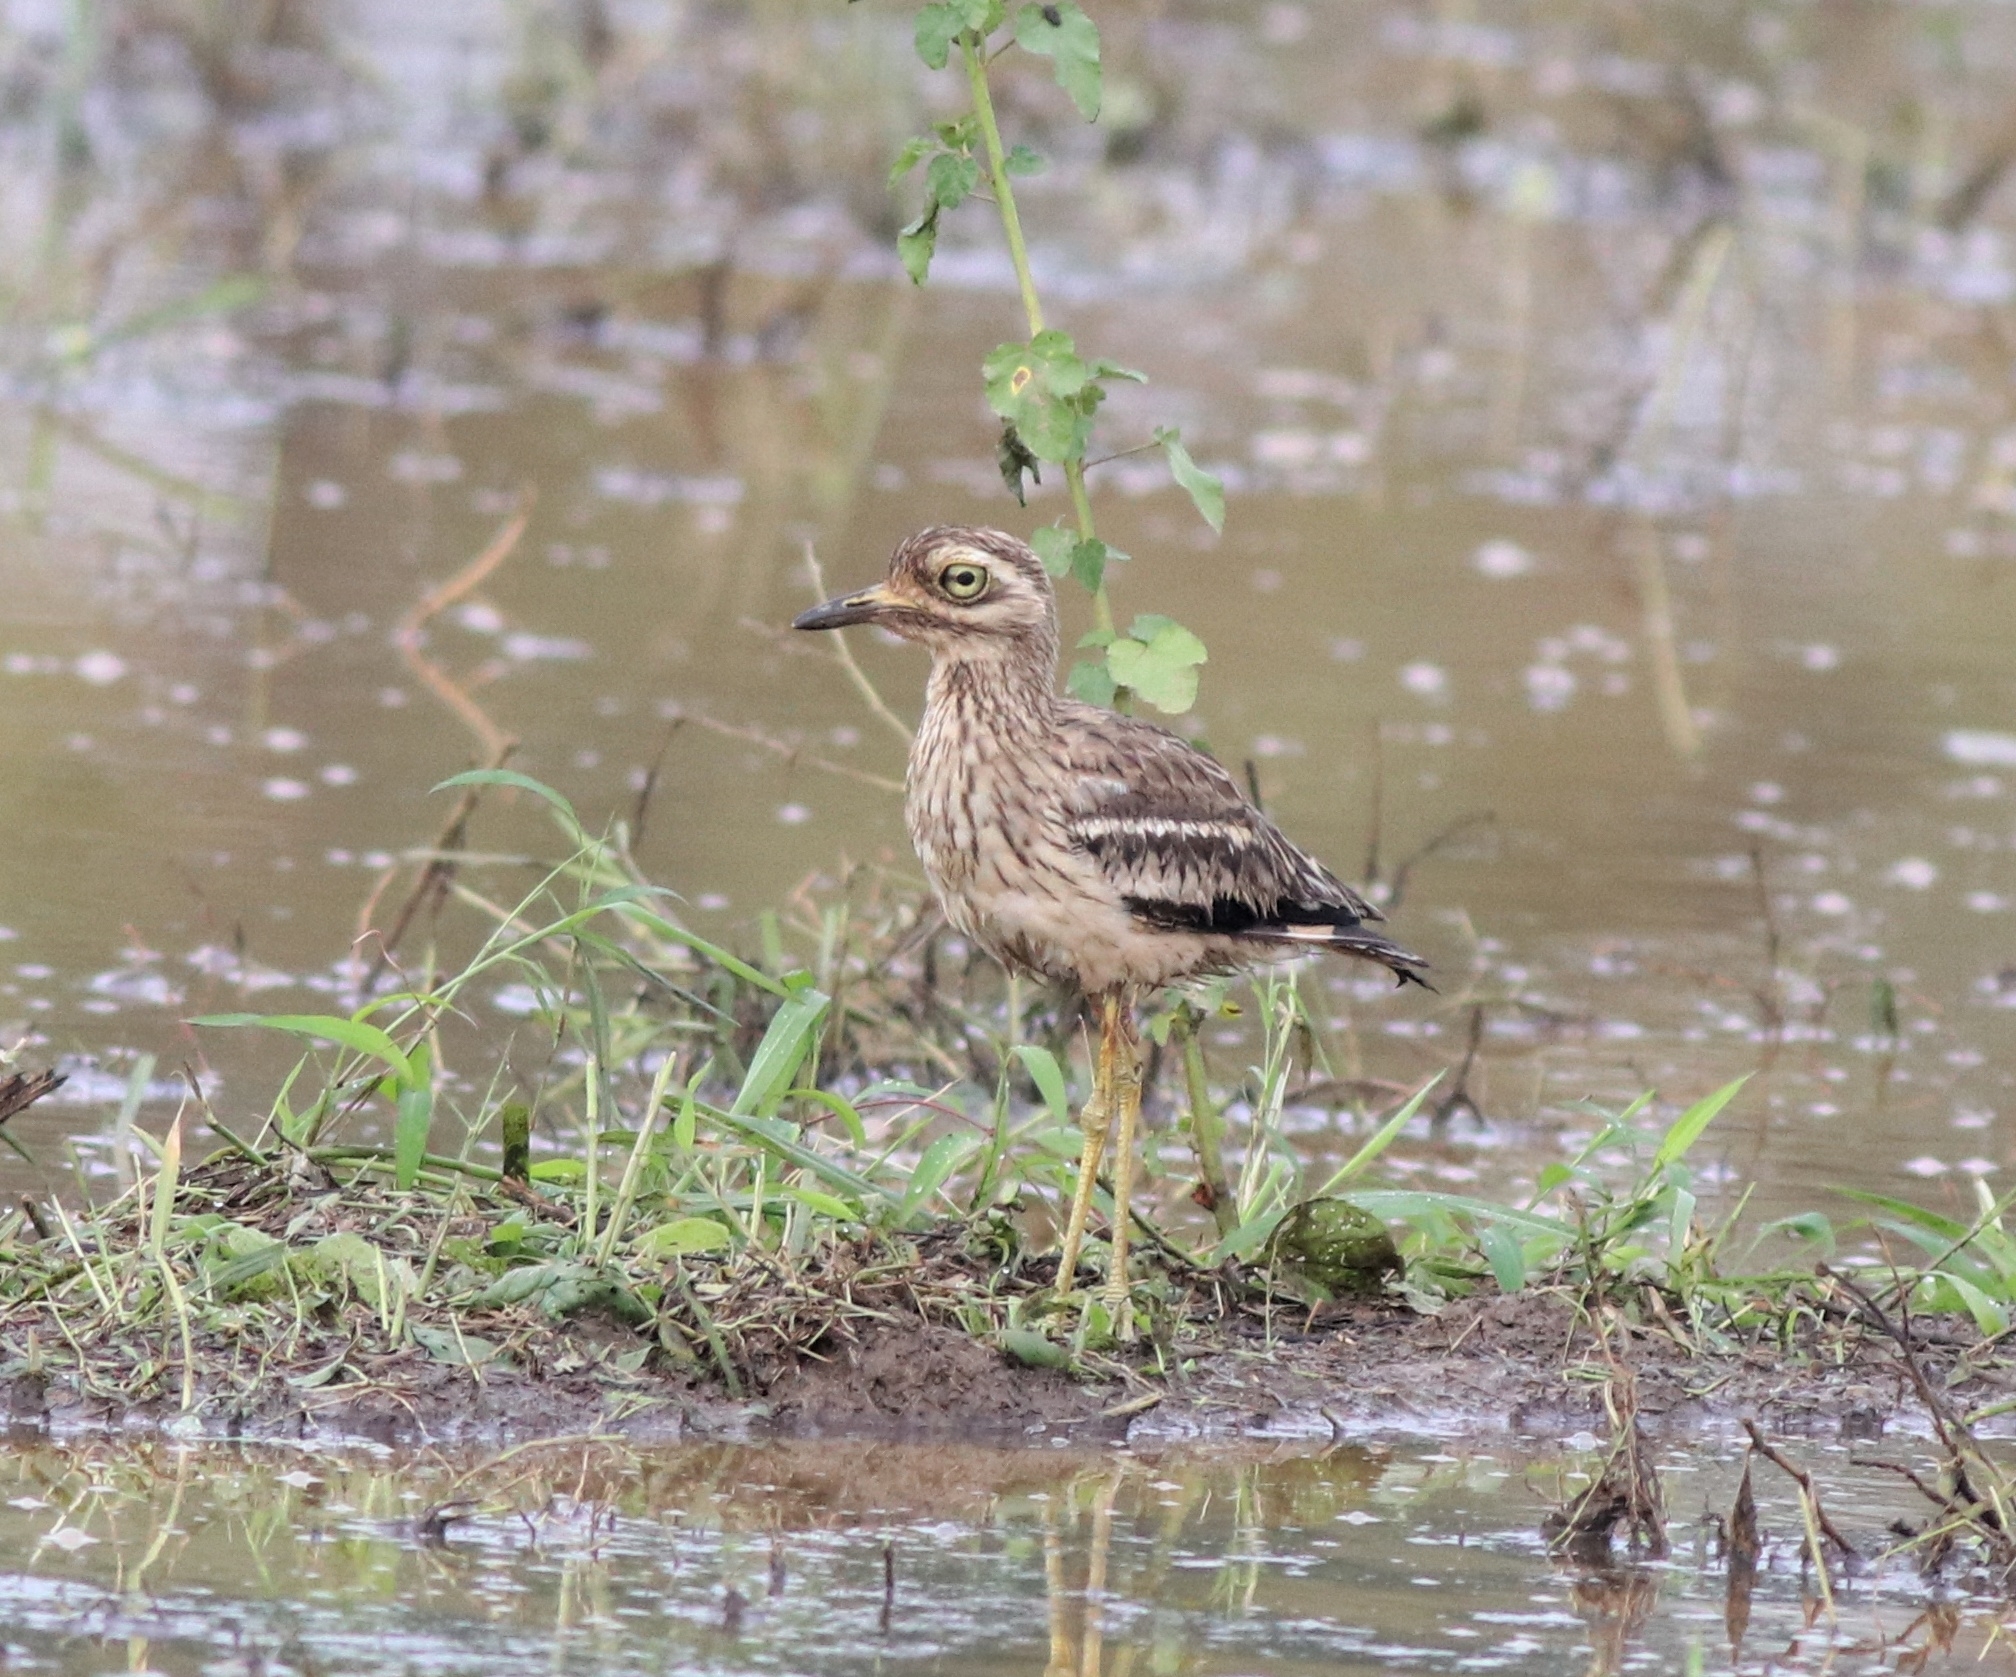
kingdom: Animalia
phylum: Chordata
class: Aves
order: Charadriiformes
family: Burhinidae
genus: Burhinus
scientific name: Burhinus indicus
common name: Indian thick-knee
